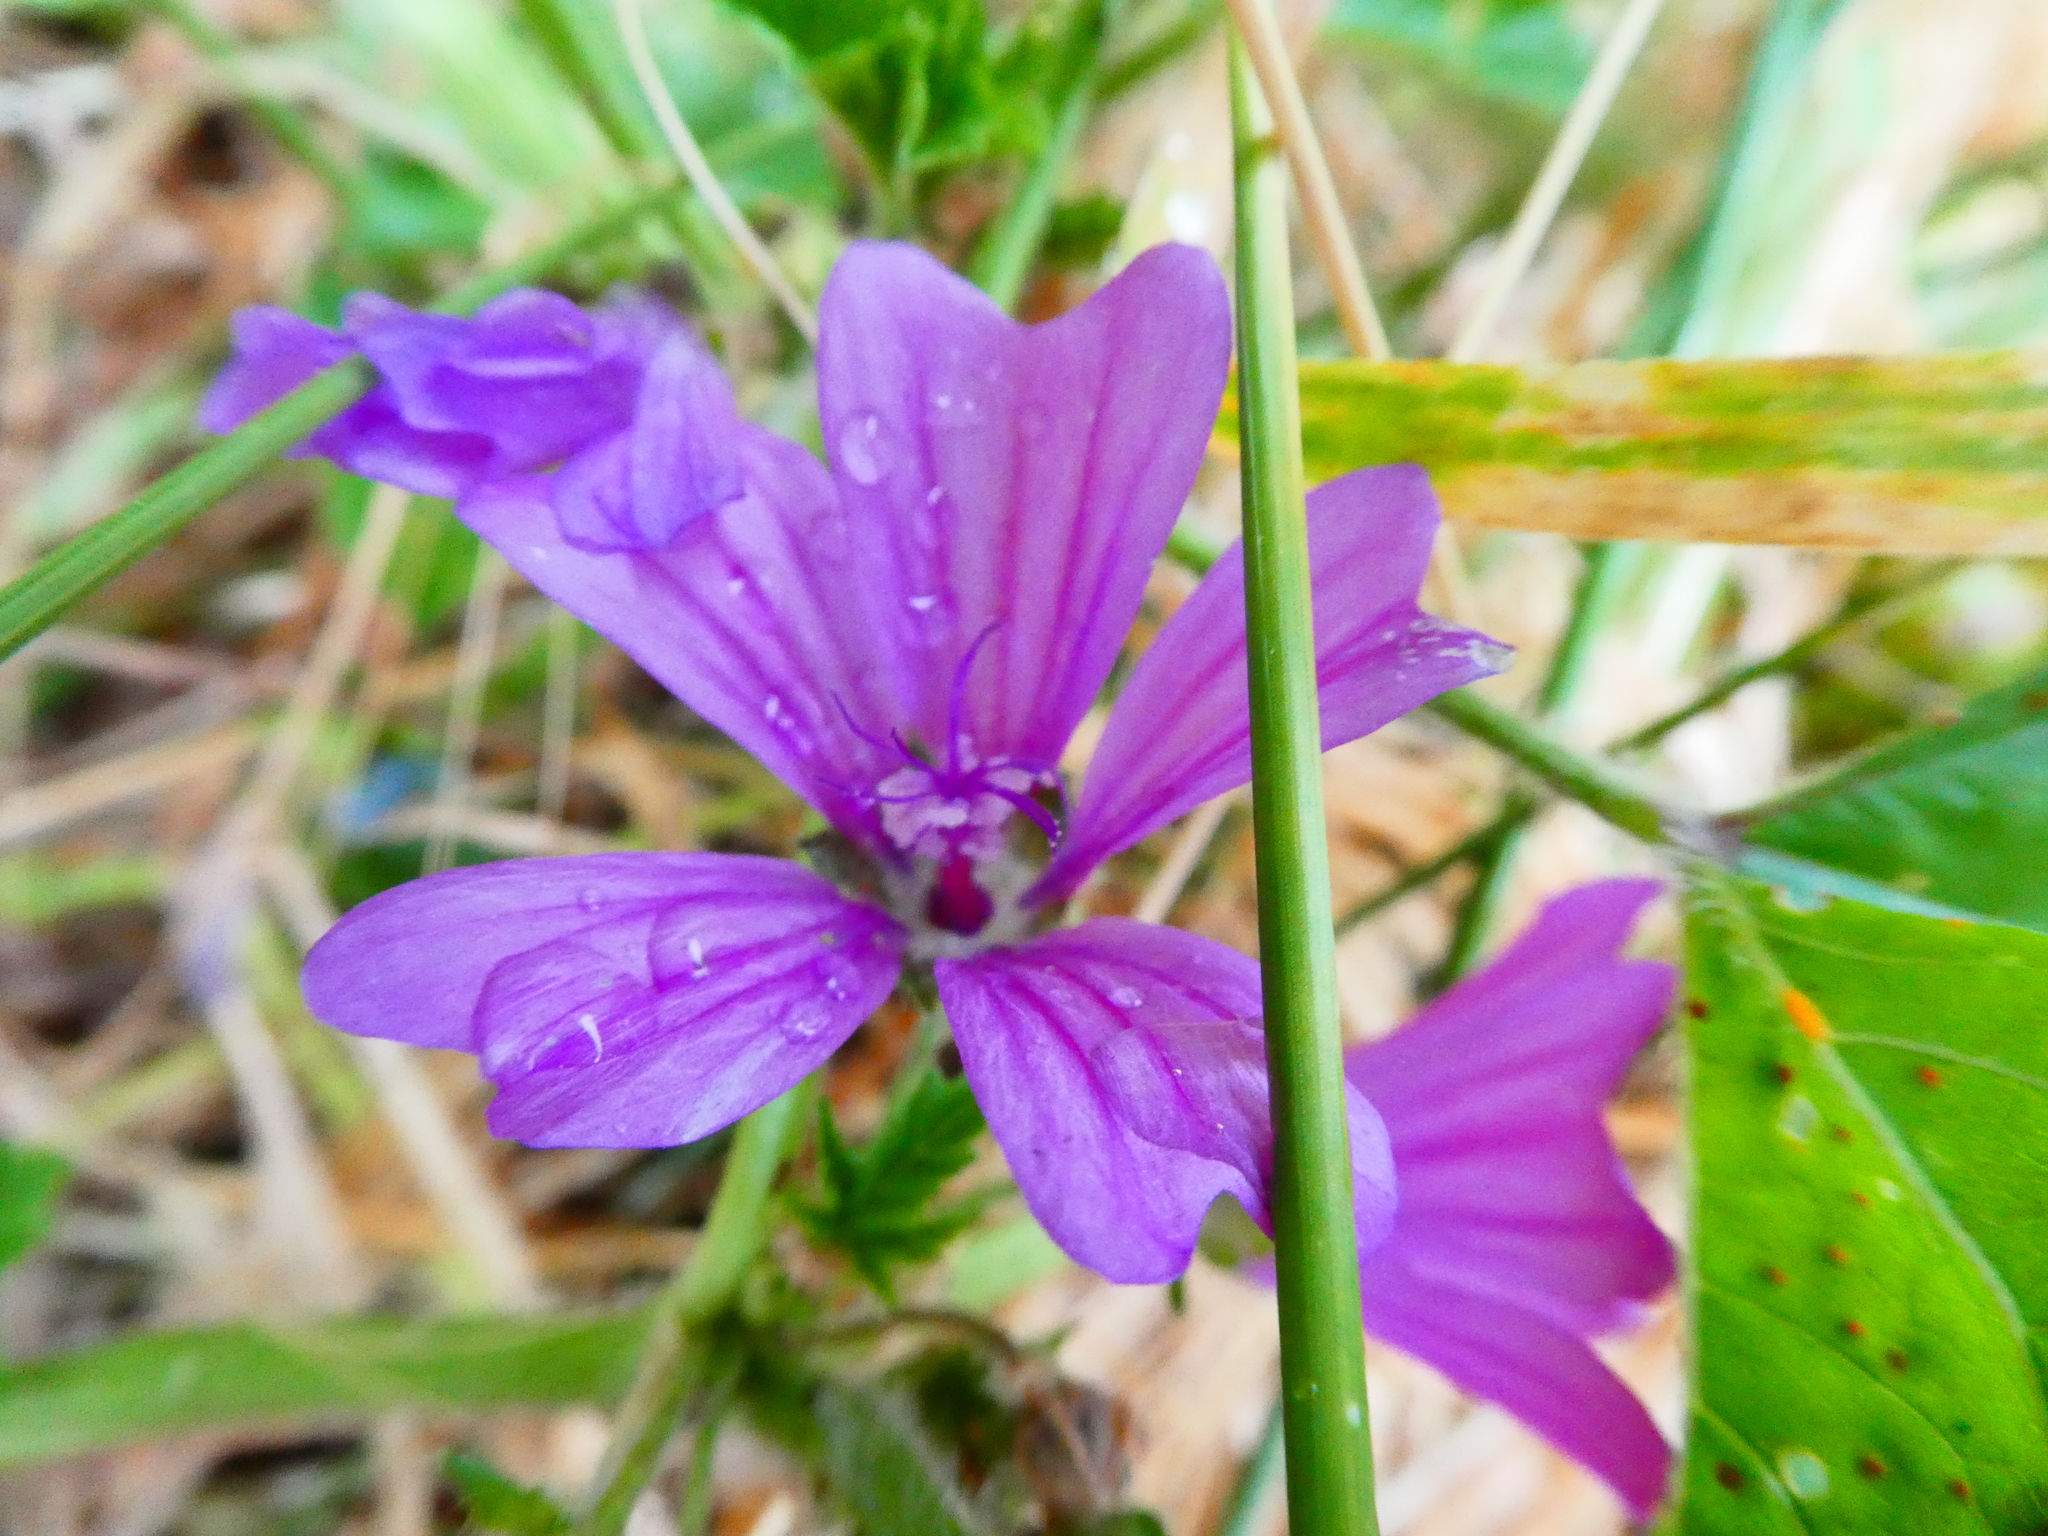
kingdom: Plantae
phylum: Tracheophyta
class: Magnoliopsida
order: Malvales
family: Malvaceae
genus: Malva
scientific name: Malva sylvestris
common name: Common mallow
